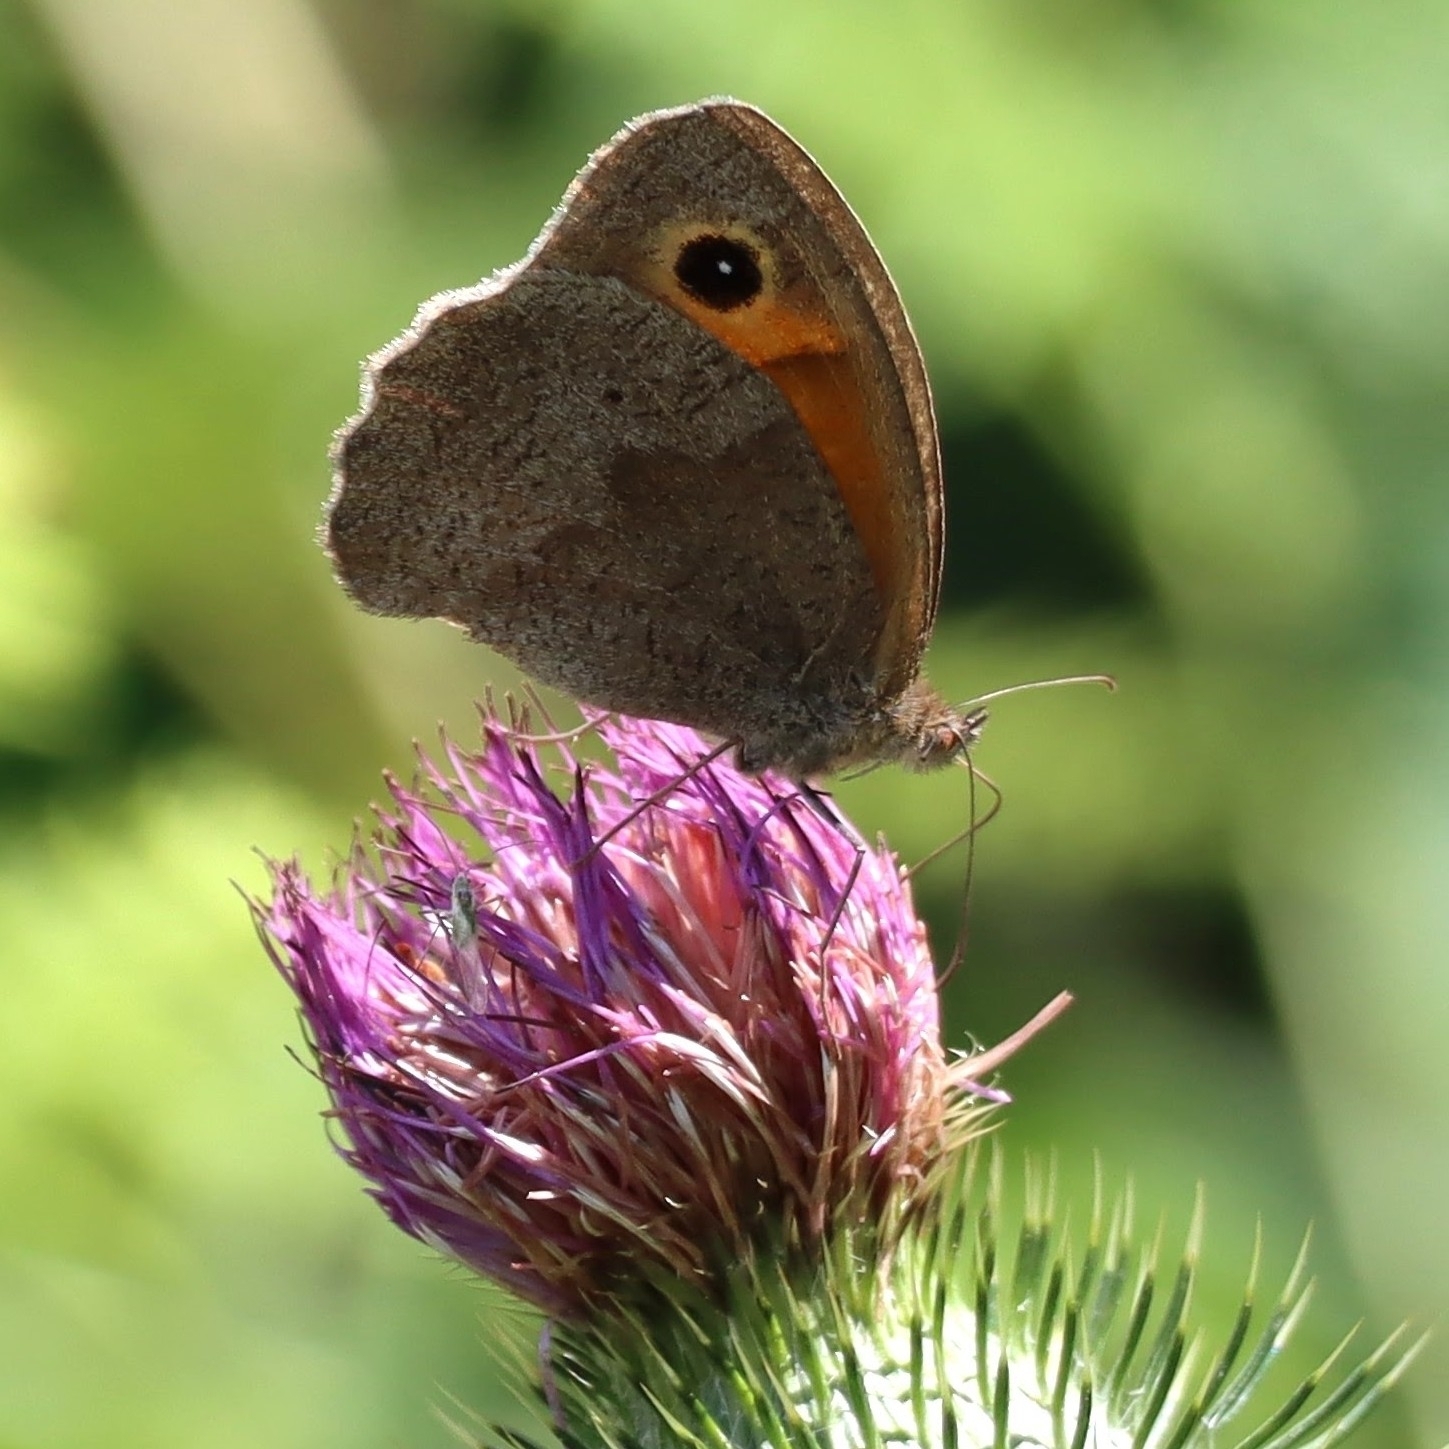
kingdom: Animalia
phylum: Arthropoda
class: Insecta
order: Lepidoptera
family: Nymphalidae
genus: Maniola
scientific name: Maniola jurtina
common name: Meadow brown
